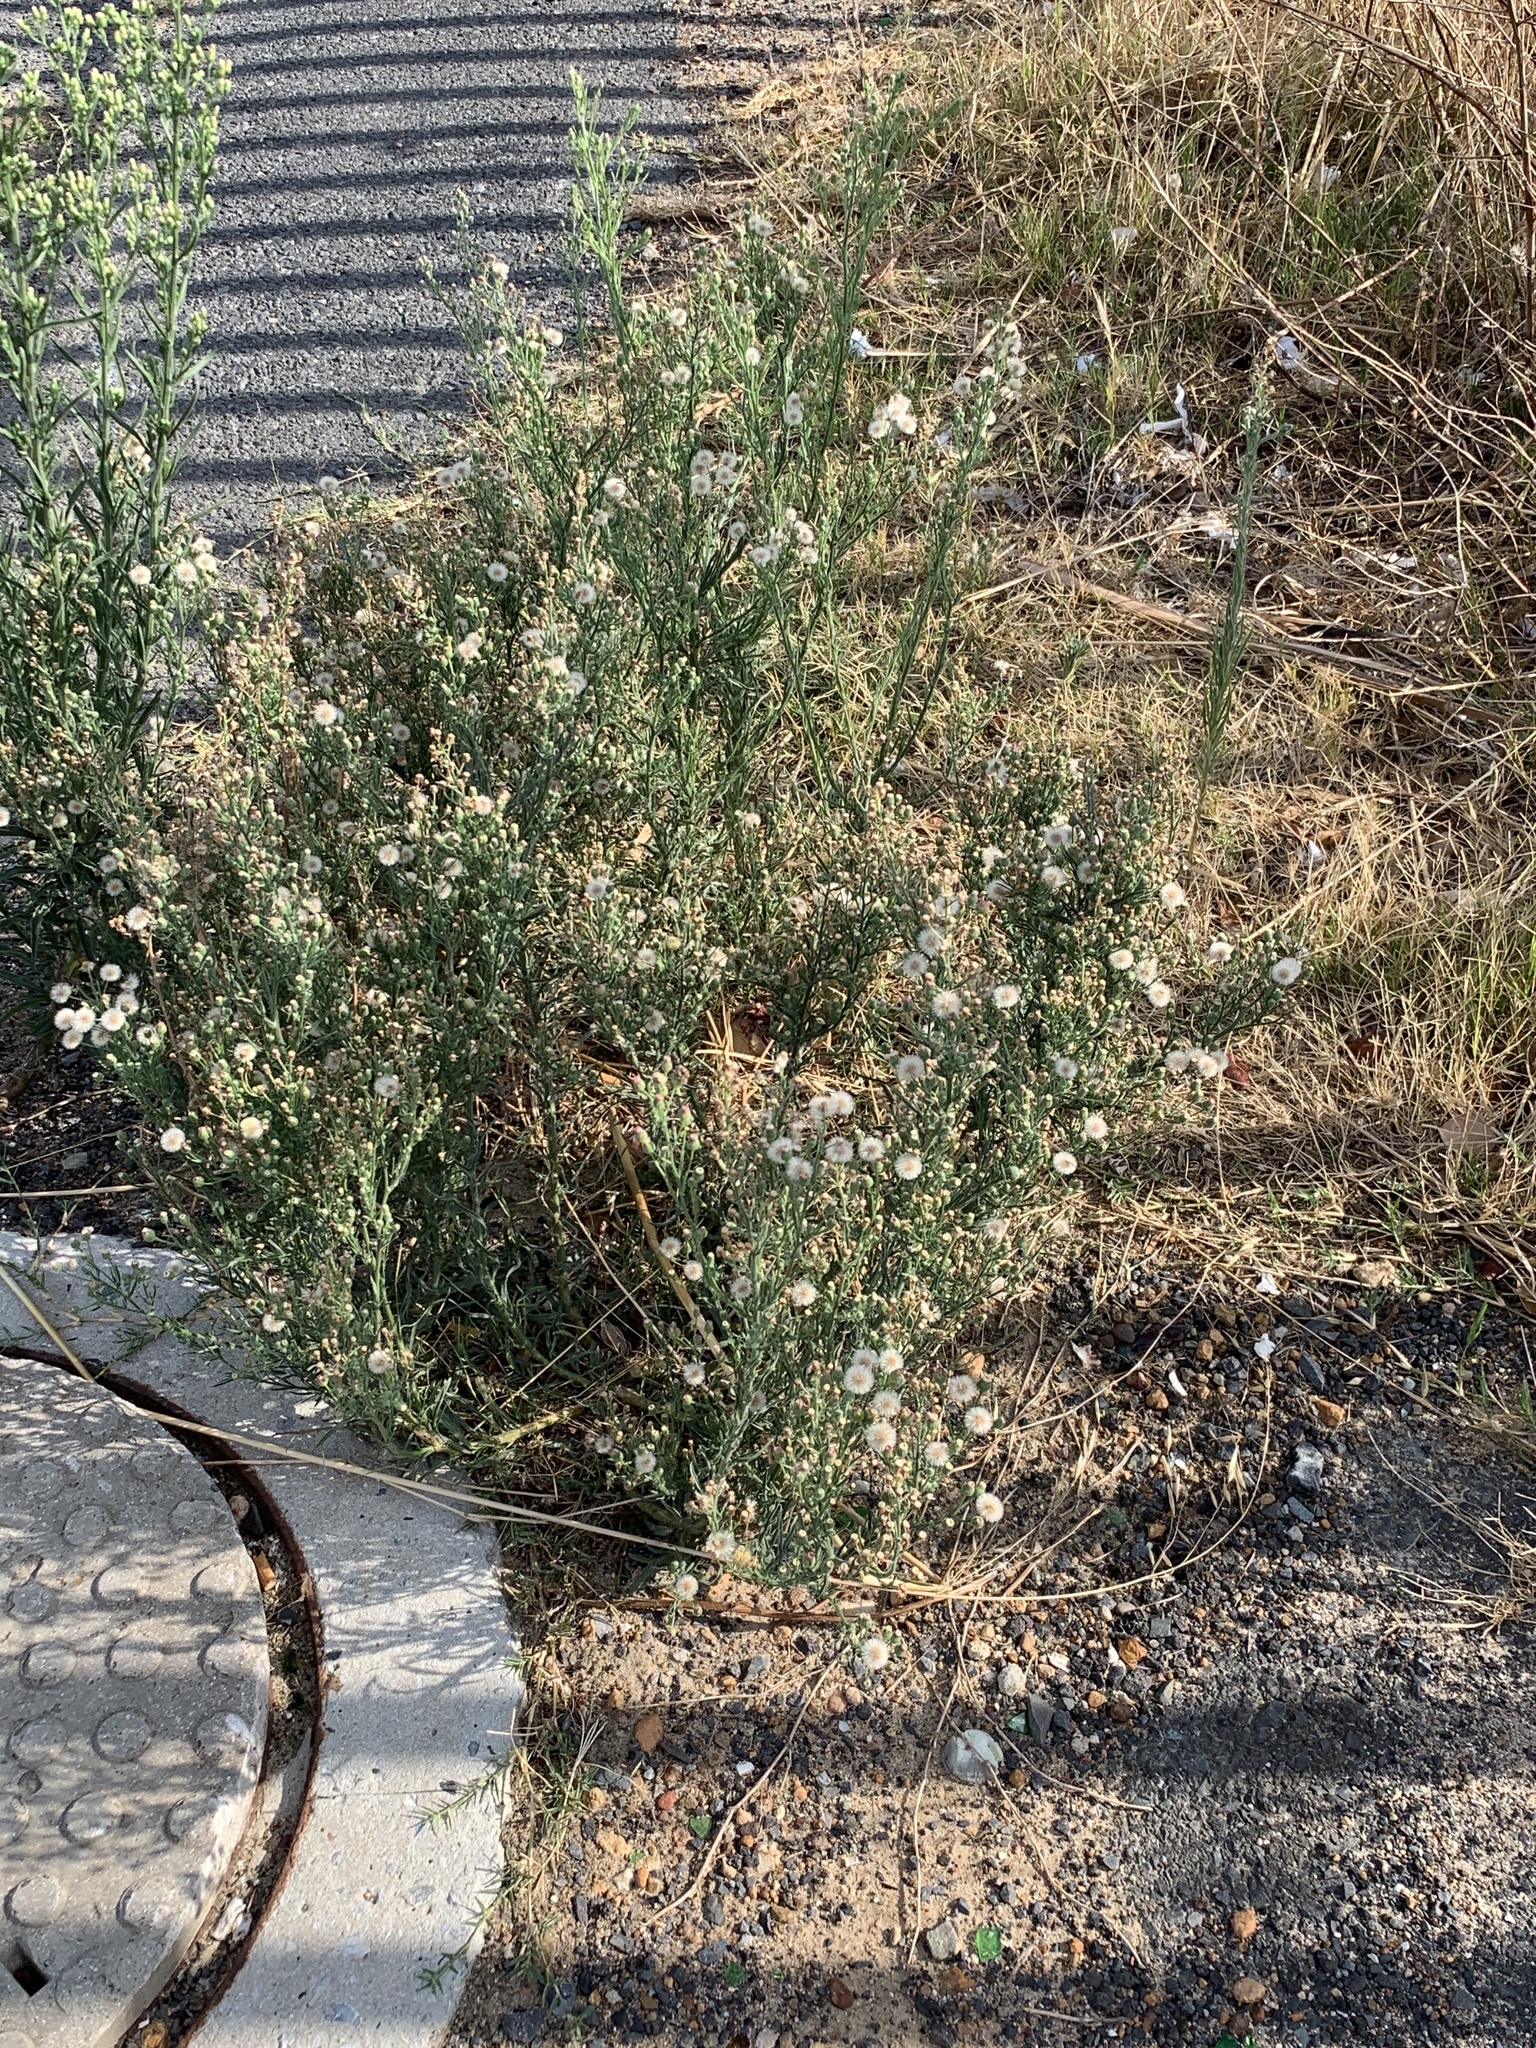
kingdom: Plantae
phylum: Tracheophyta
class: Magnoliopsida
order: Asterales
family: Asteraceae
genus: Erigeron
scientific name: Erigeron bonariensis
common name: Argentine fleabane
